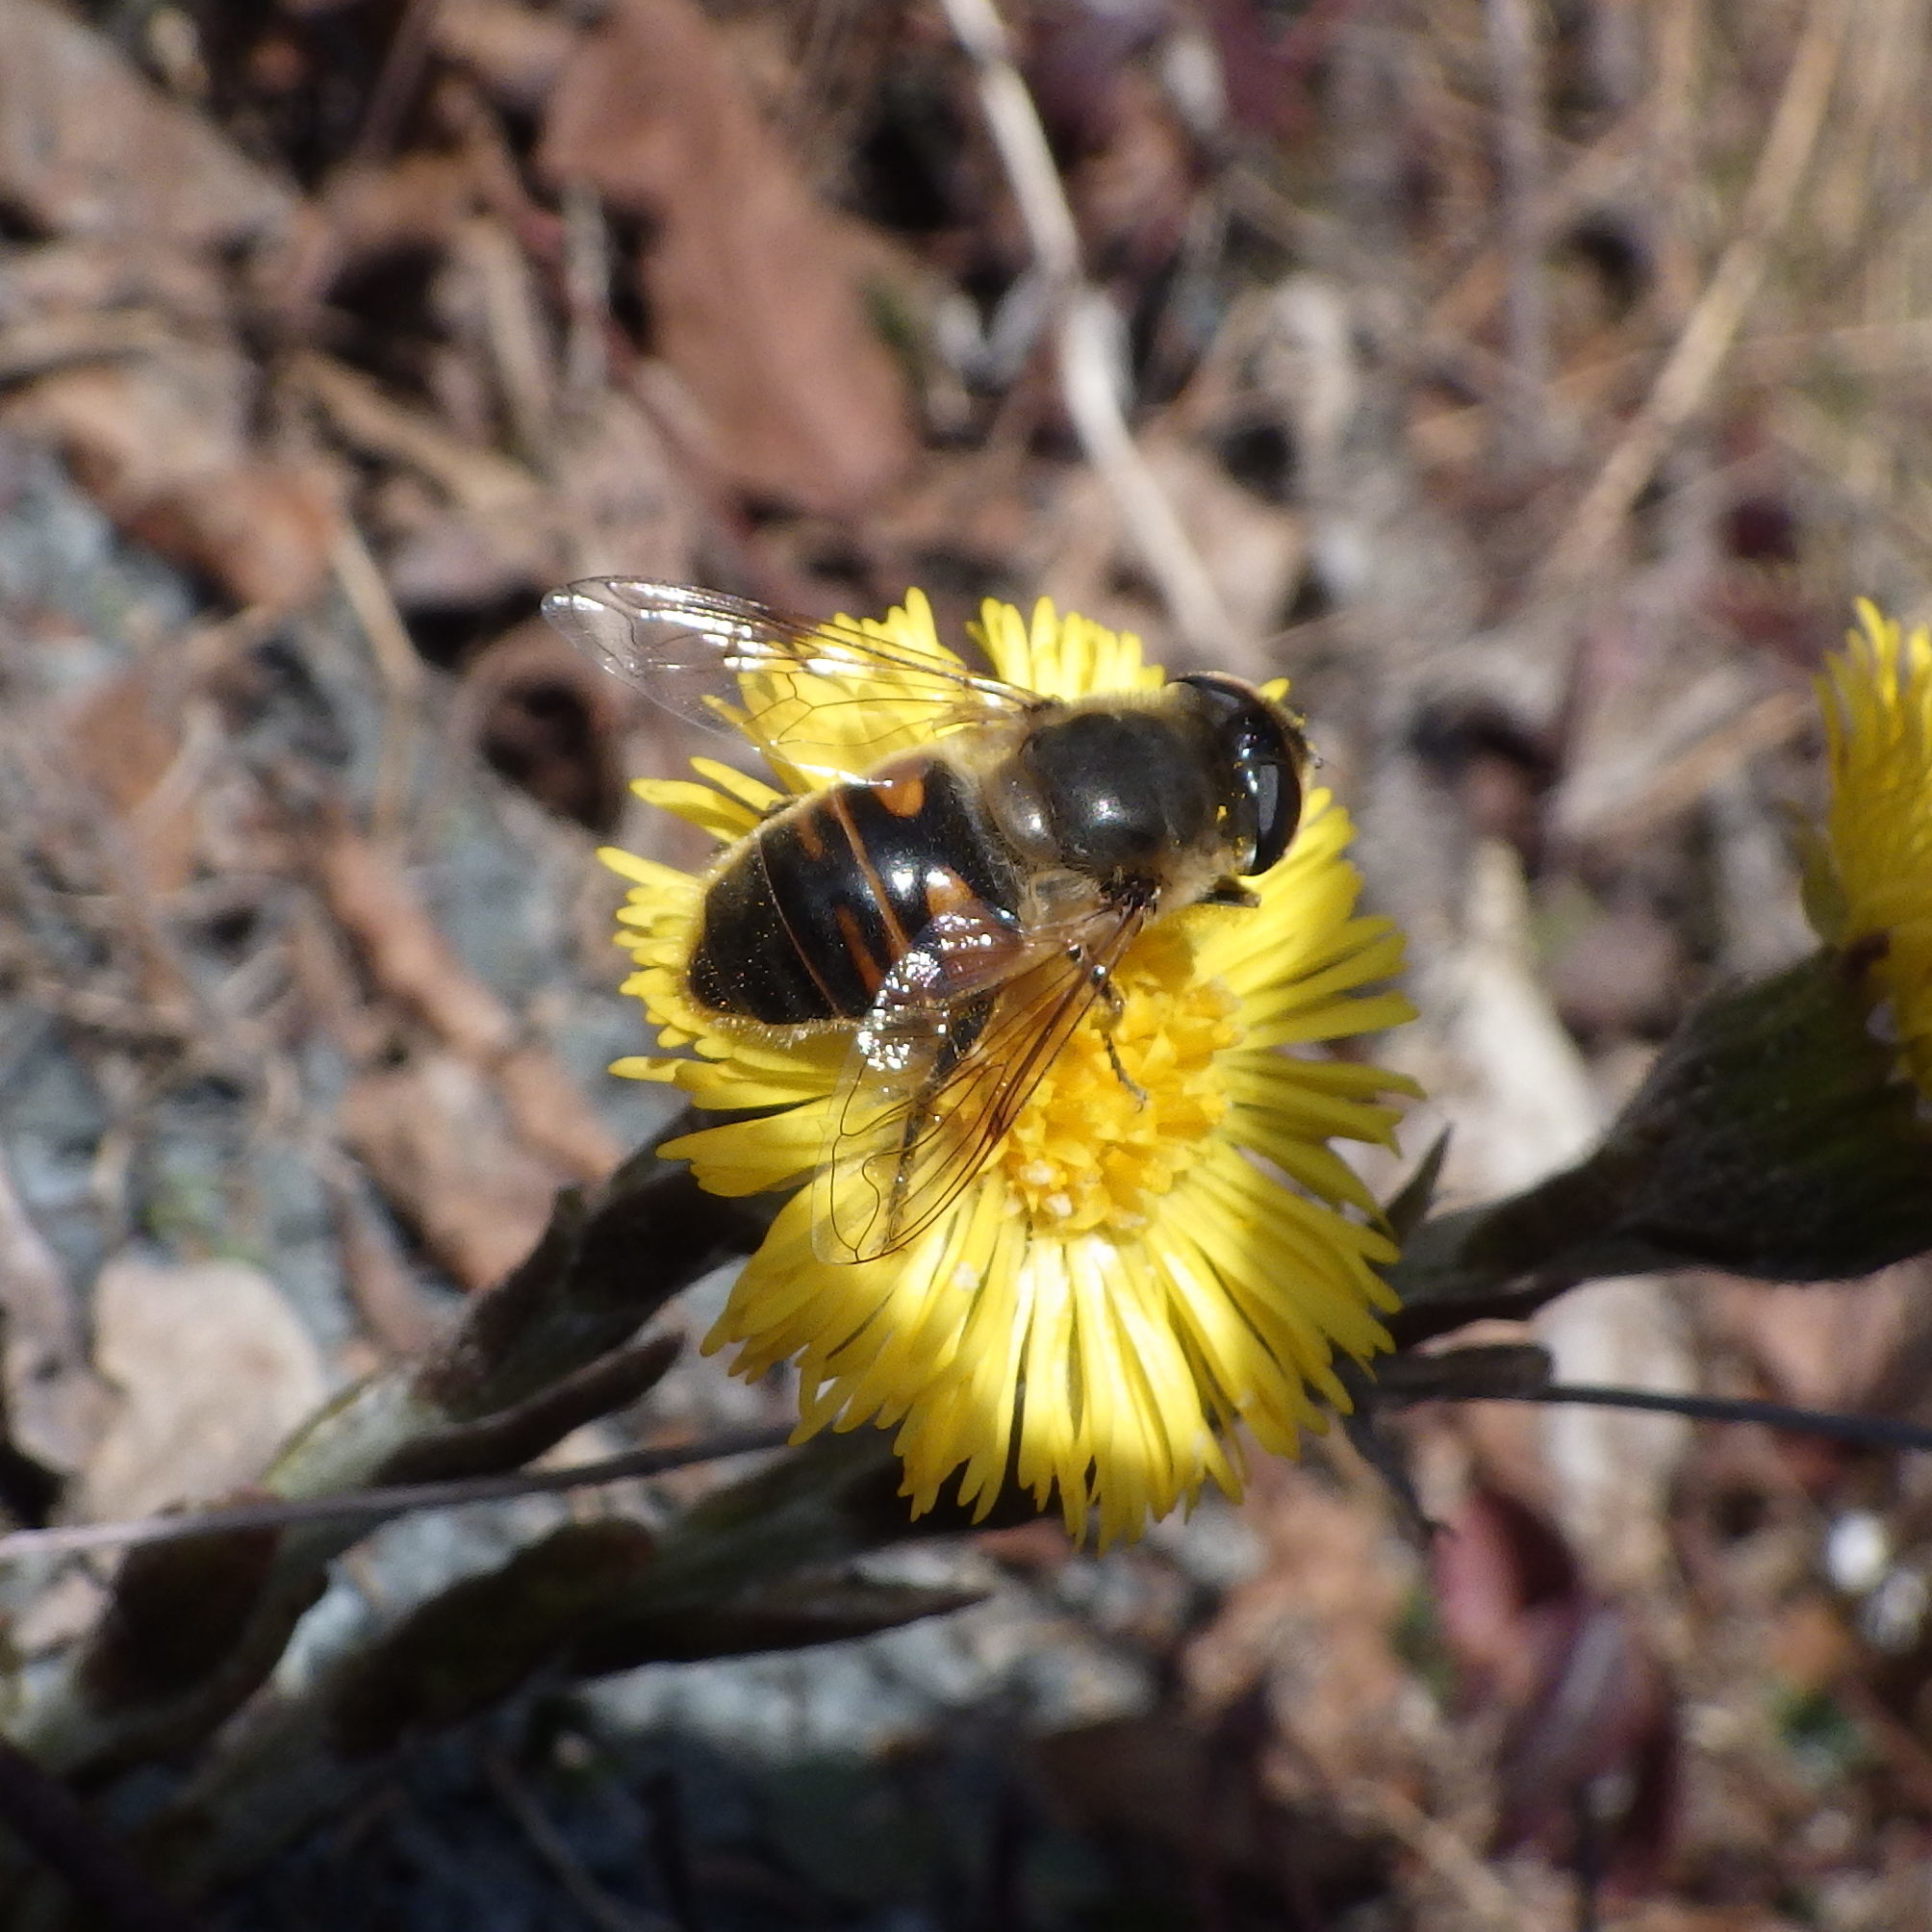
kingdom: Animalia
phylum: Arthropoda
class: Insecta
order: Diptera
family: Syrphidae
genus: Eristalis
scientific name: Eristalis tenax
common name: Drone fly
